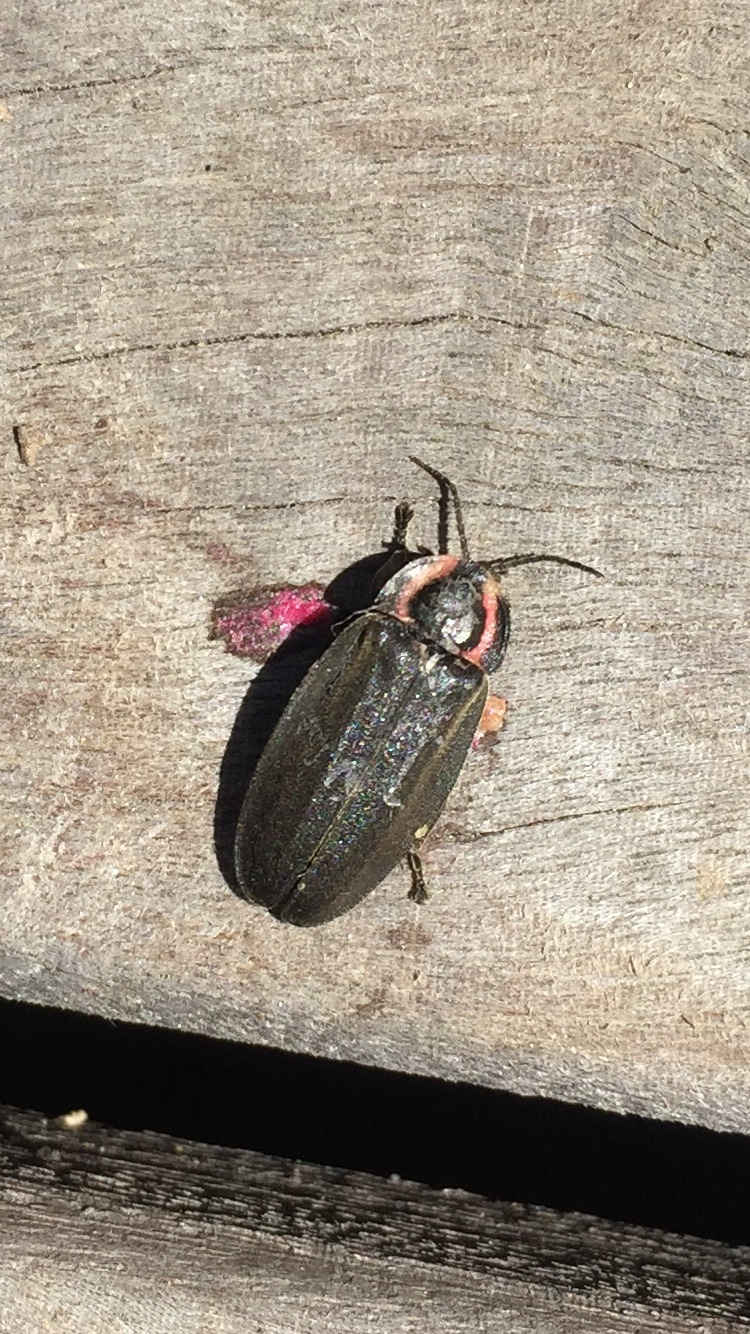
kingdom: Animalia
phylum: Arthropoda
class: Insecta
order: Coleoptera
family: Lampyridae
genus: Photinus
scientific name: Photinus corrusca
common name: Winter firefly
